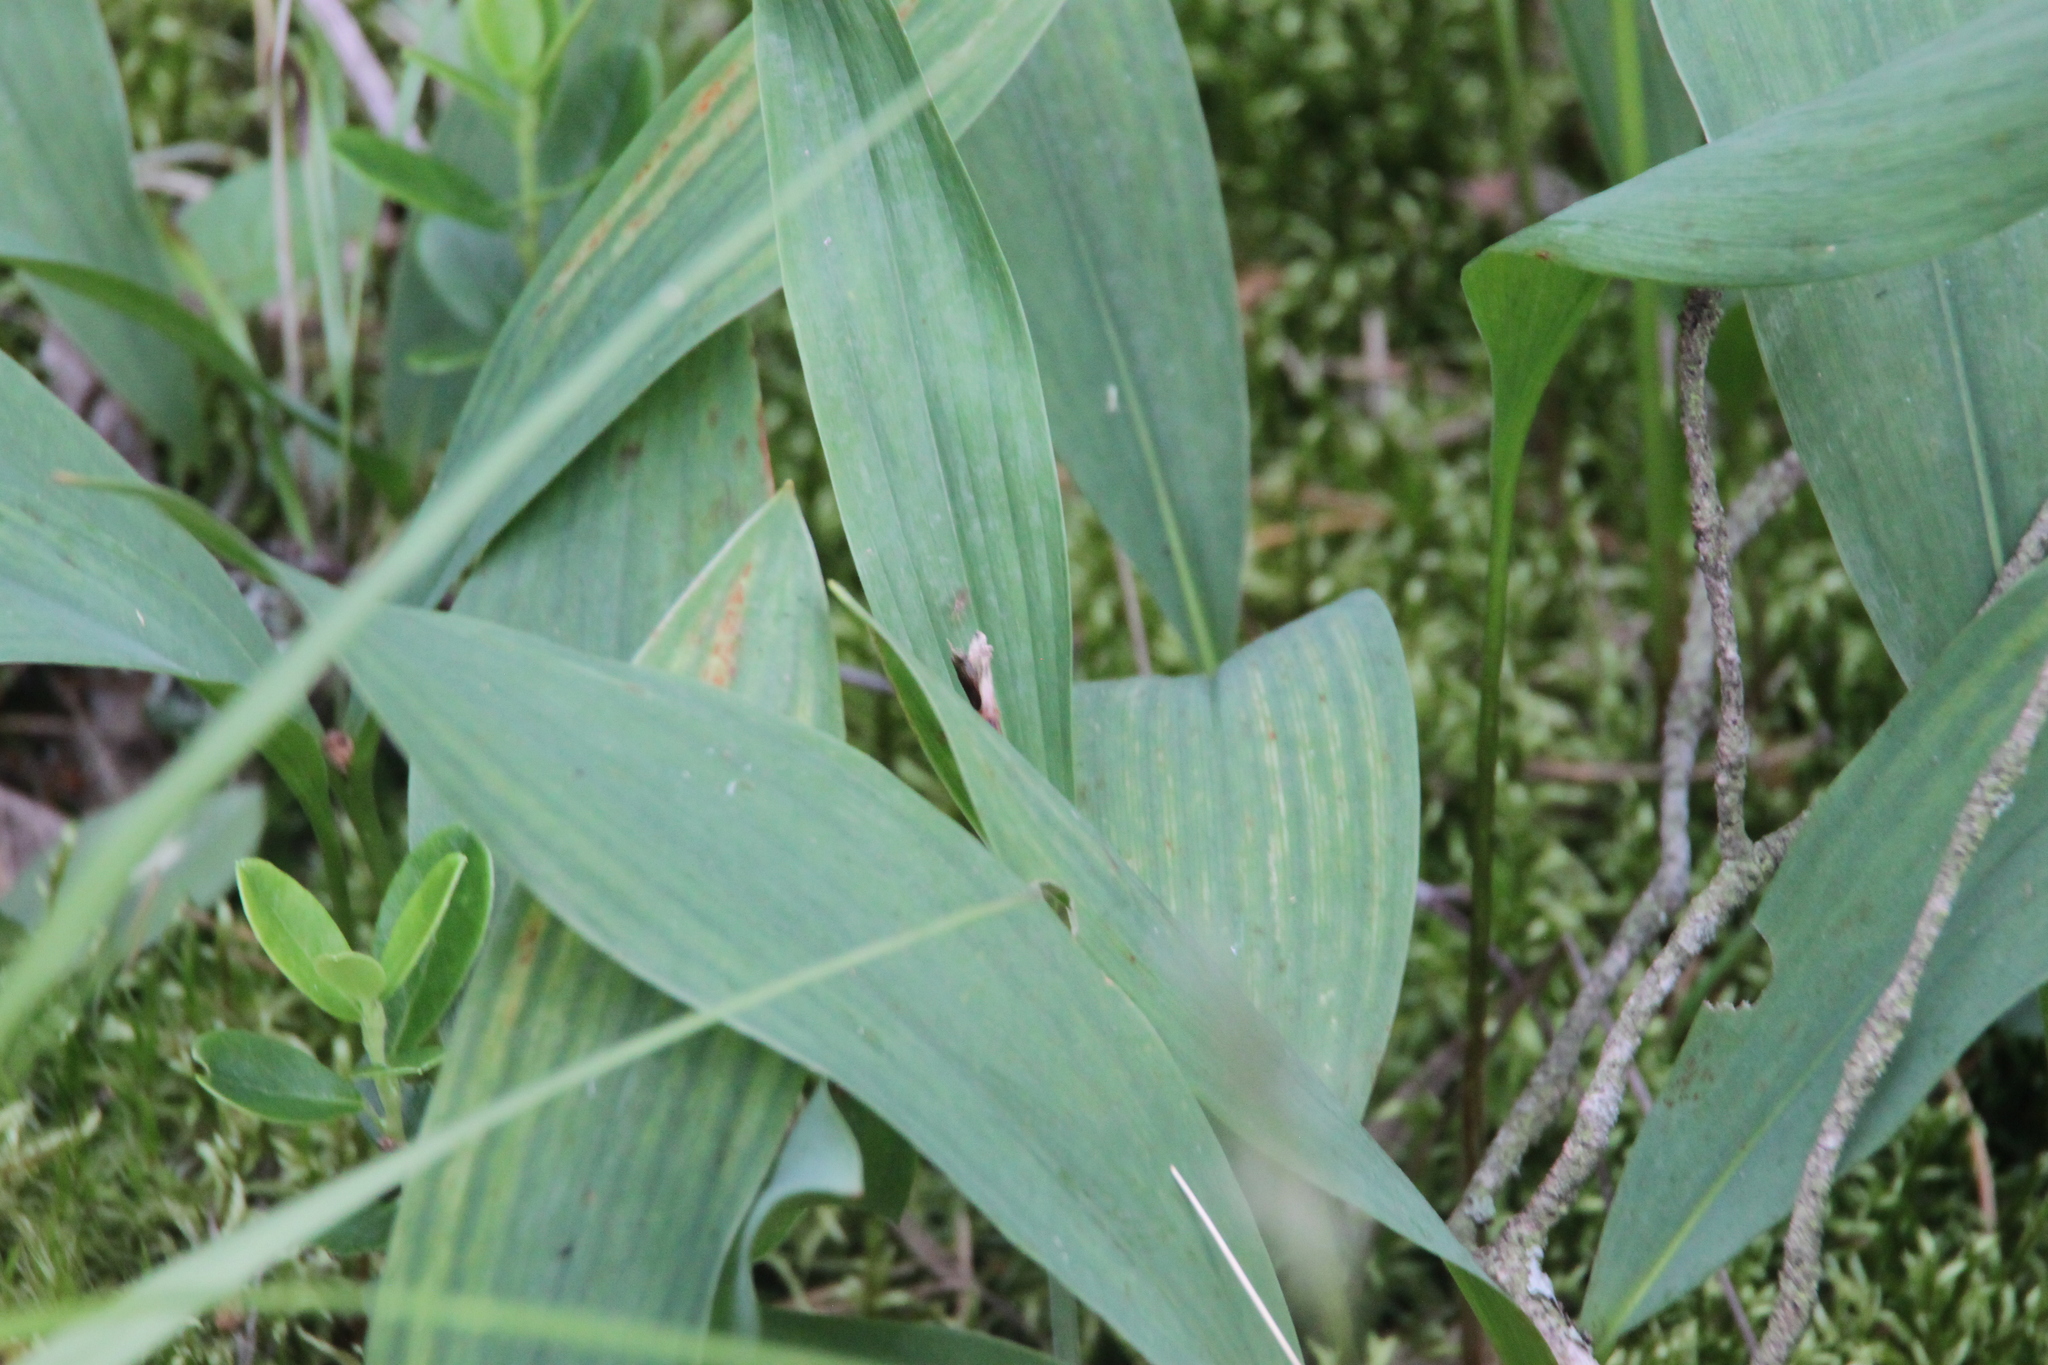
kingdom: Plantae
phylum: Tracheophyta
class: Liliopsida
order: Asparagales
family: Asparagaceae
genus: Convallaria
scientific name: Convallaria majalis
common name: Lily-of-the-valley
